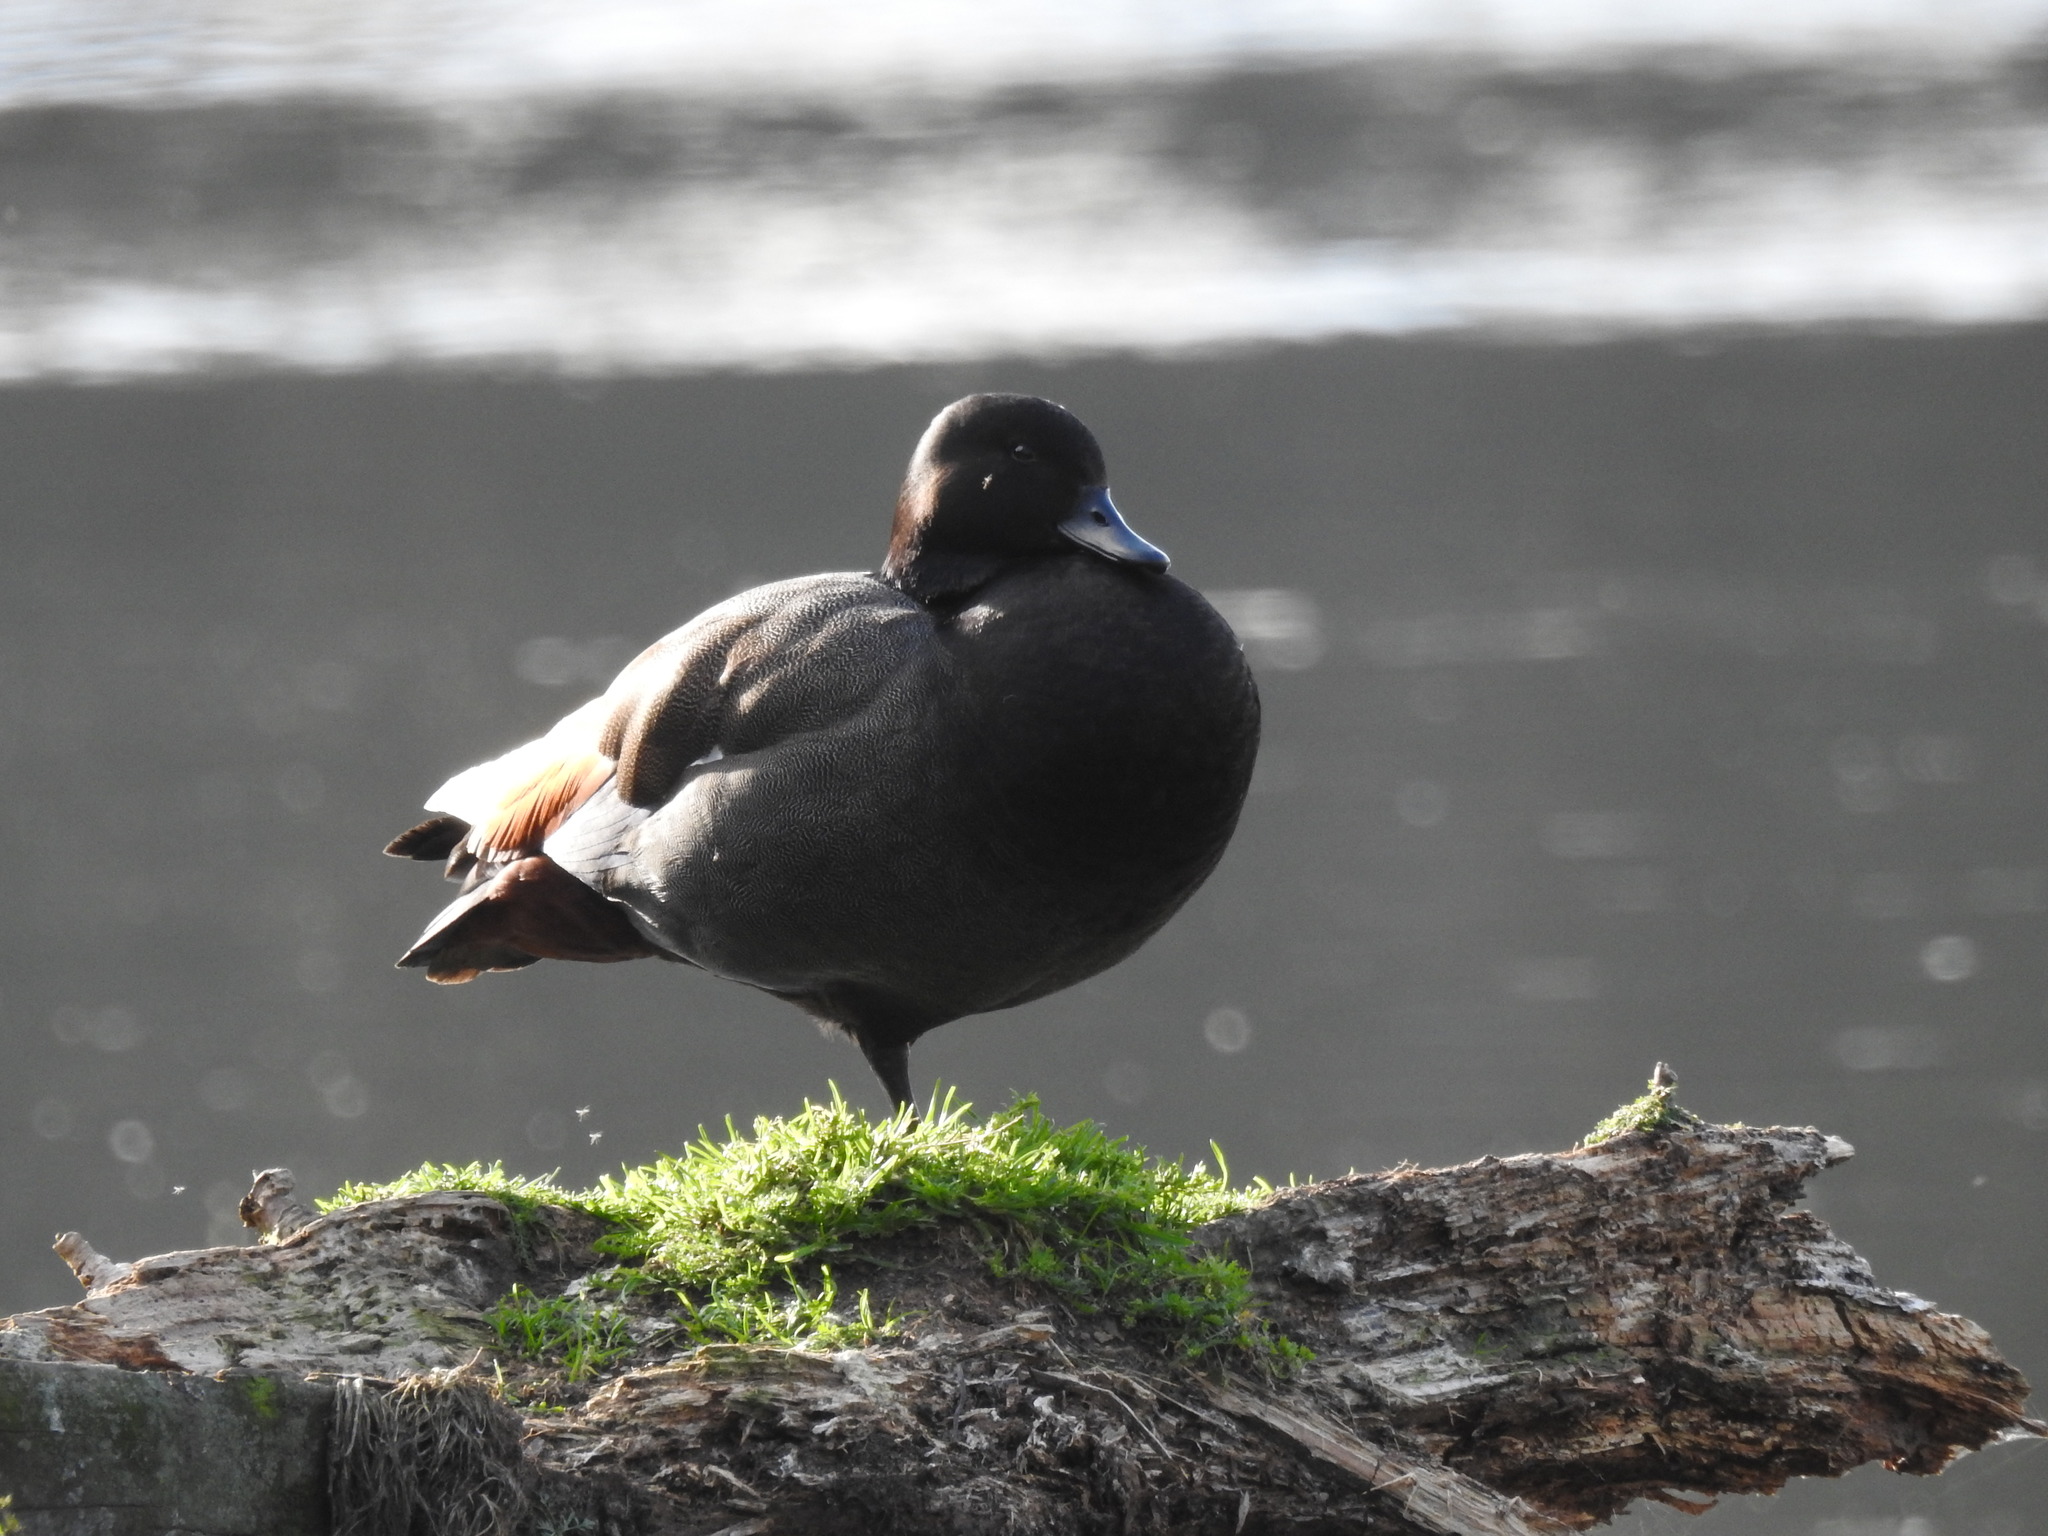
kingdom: Animalia
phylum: Chordata
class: Aves
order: Anseriformes
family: Anatidae
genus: Tadorna
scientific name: Tadorna variegata
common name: Paradise shelduck
